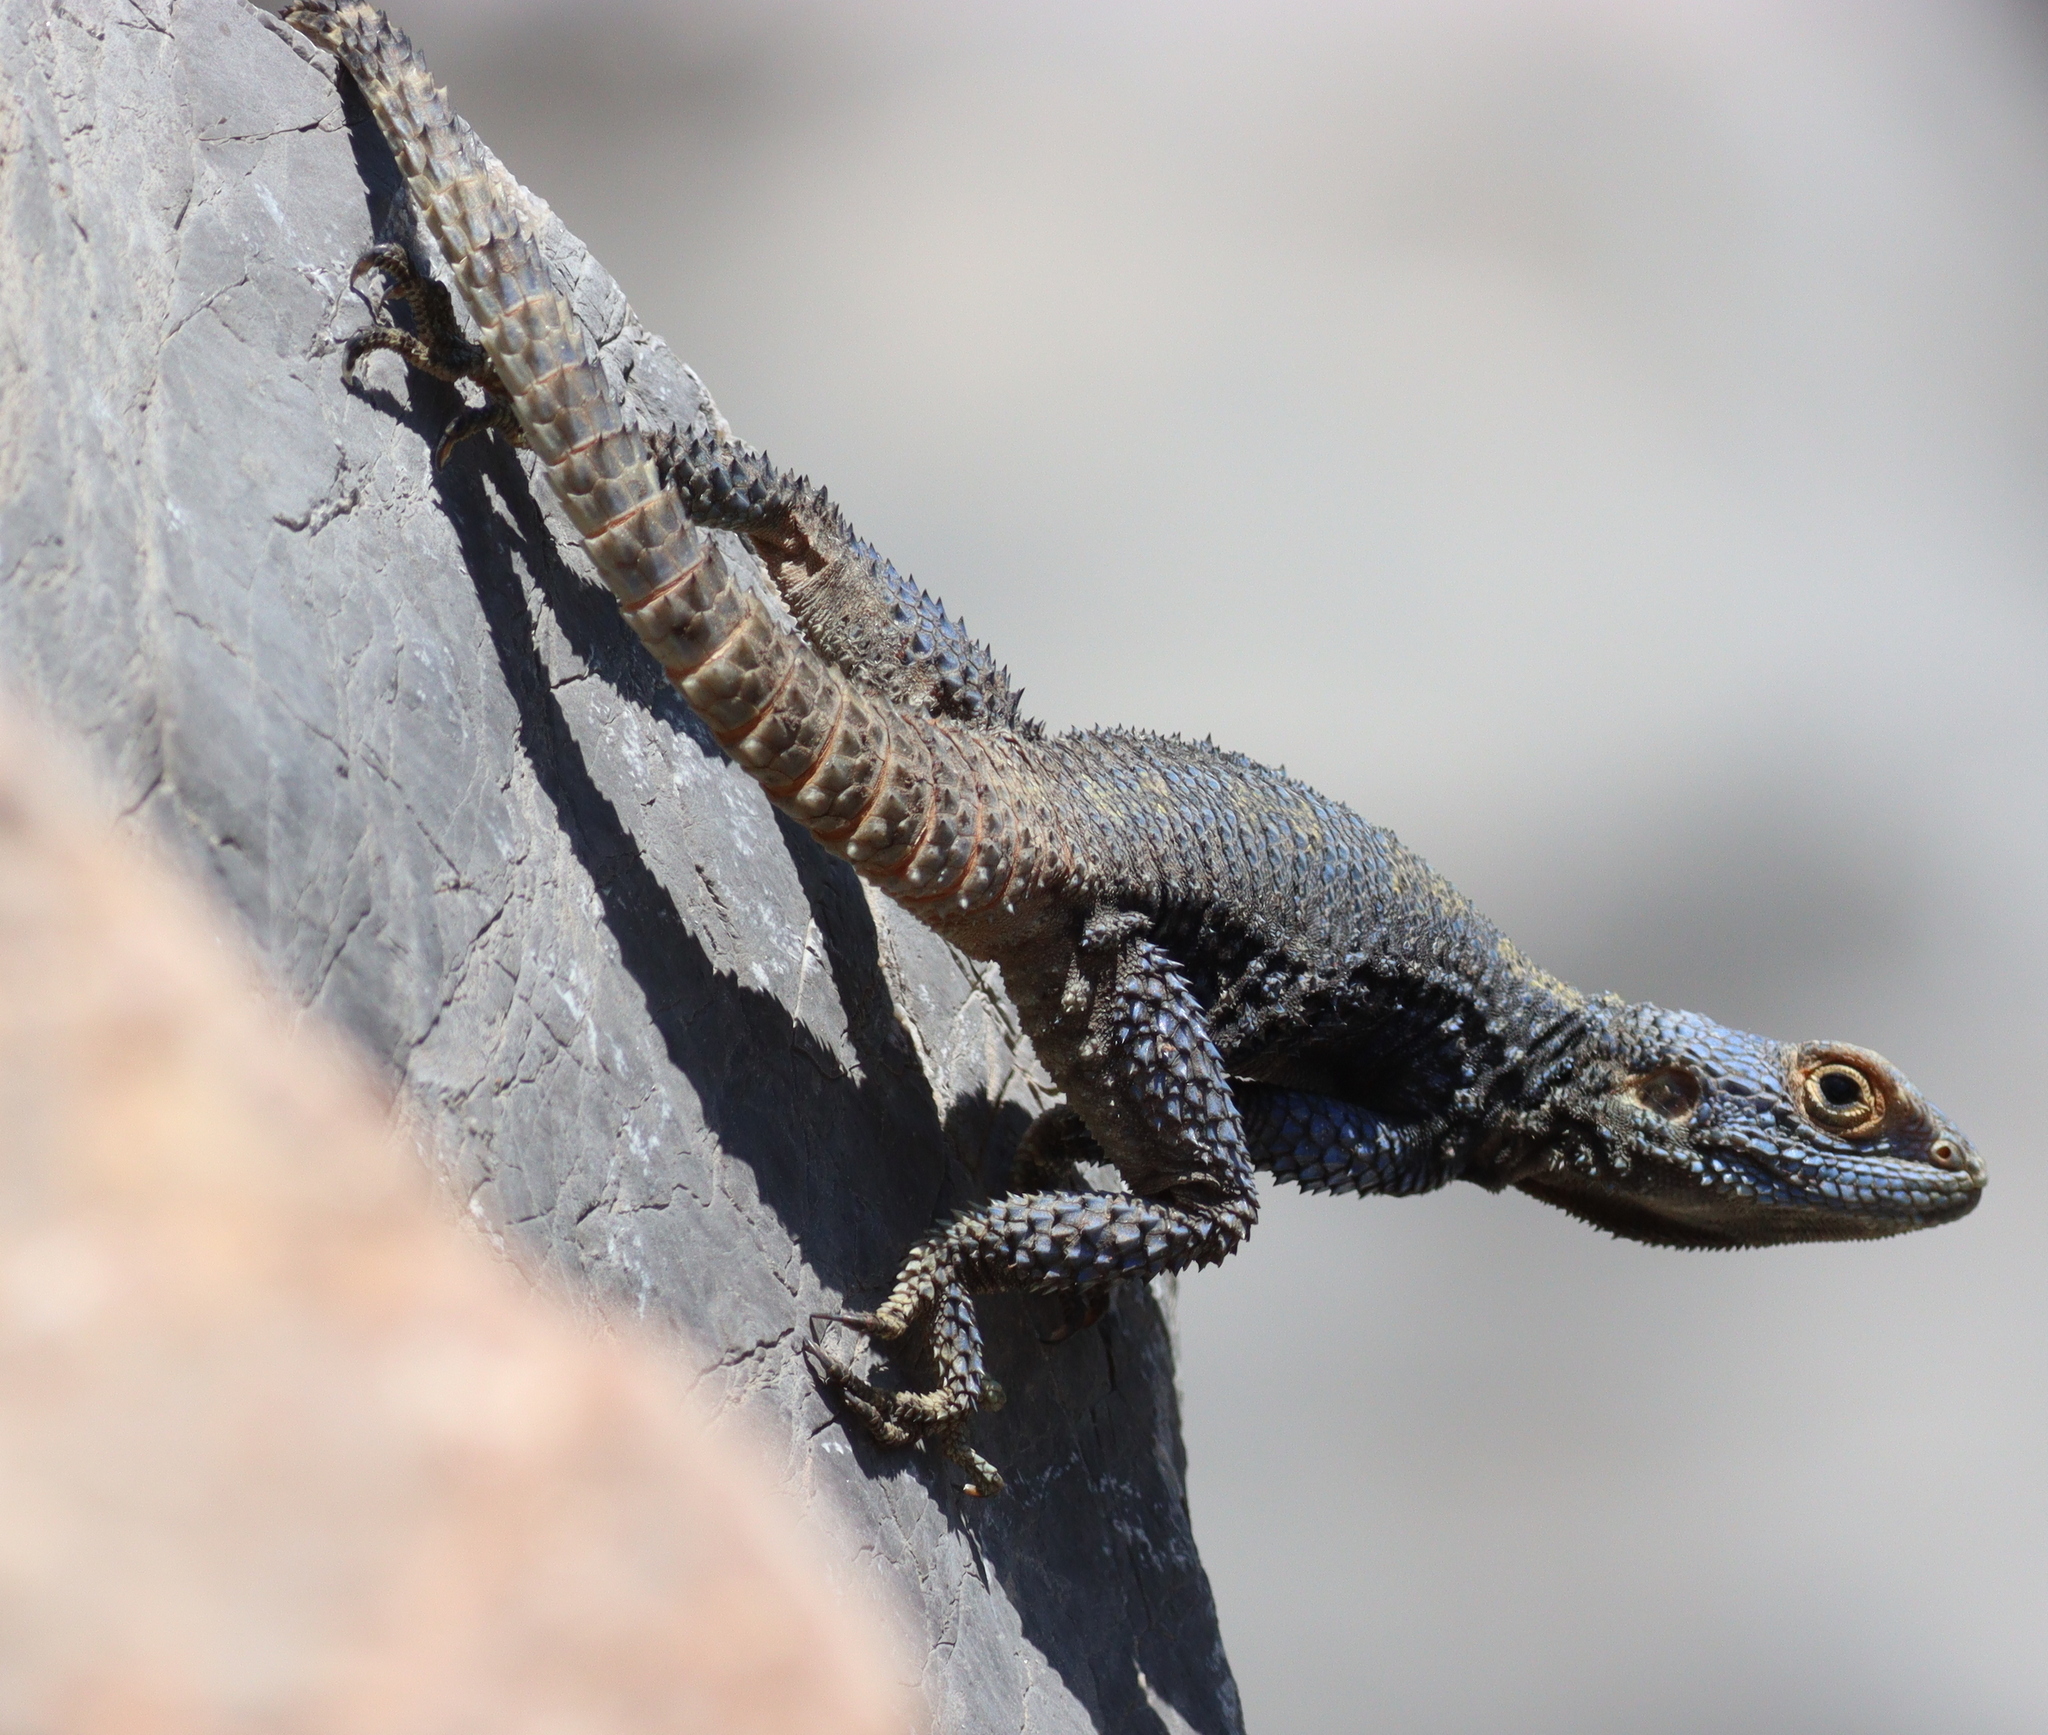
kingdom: Animalia
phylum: Chordata
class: Squamata
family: Agamidae
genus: Stellagama
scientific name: Stellagama stellio
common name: Starred agama
